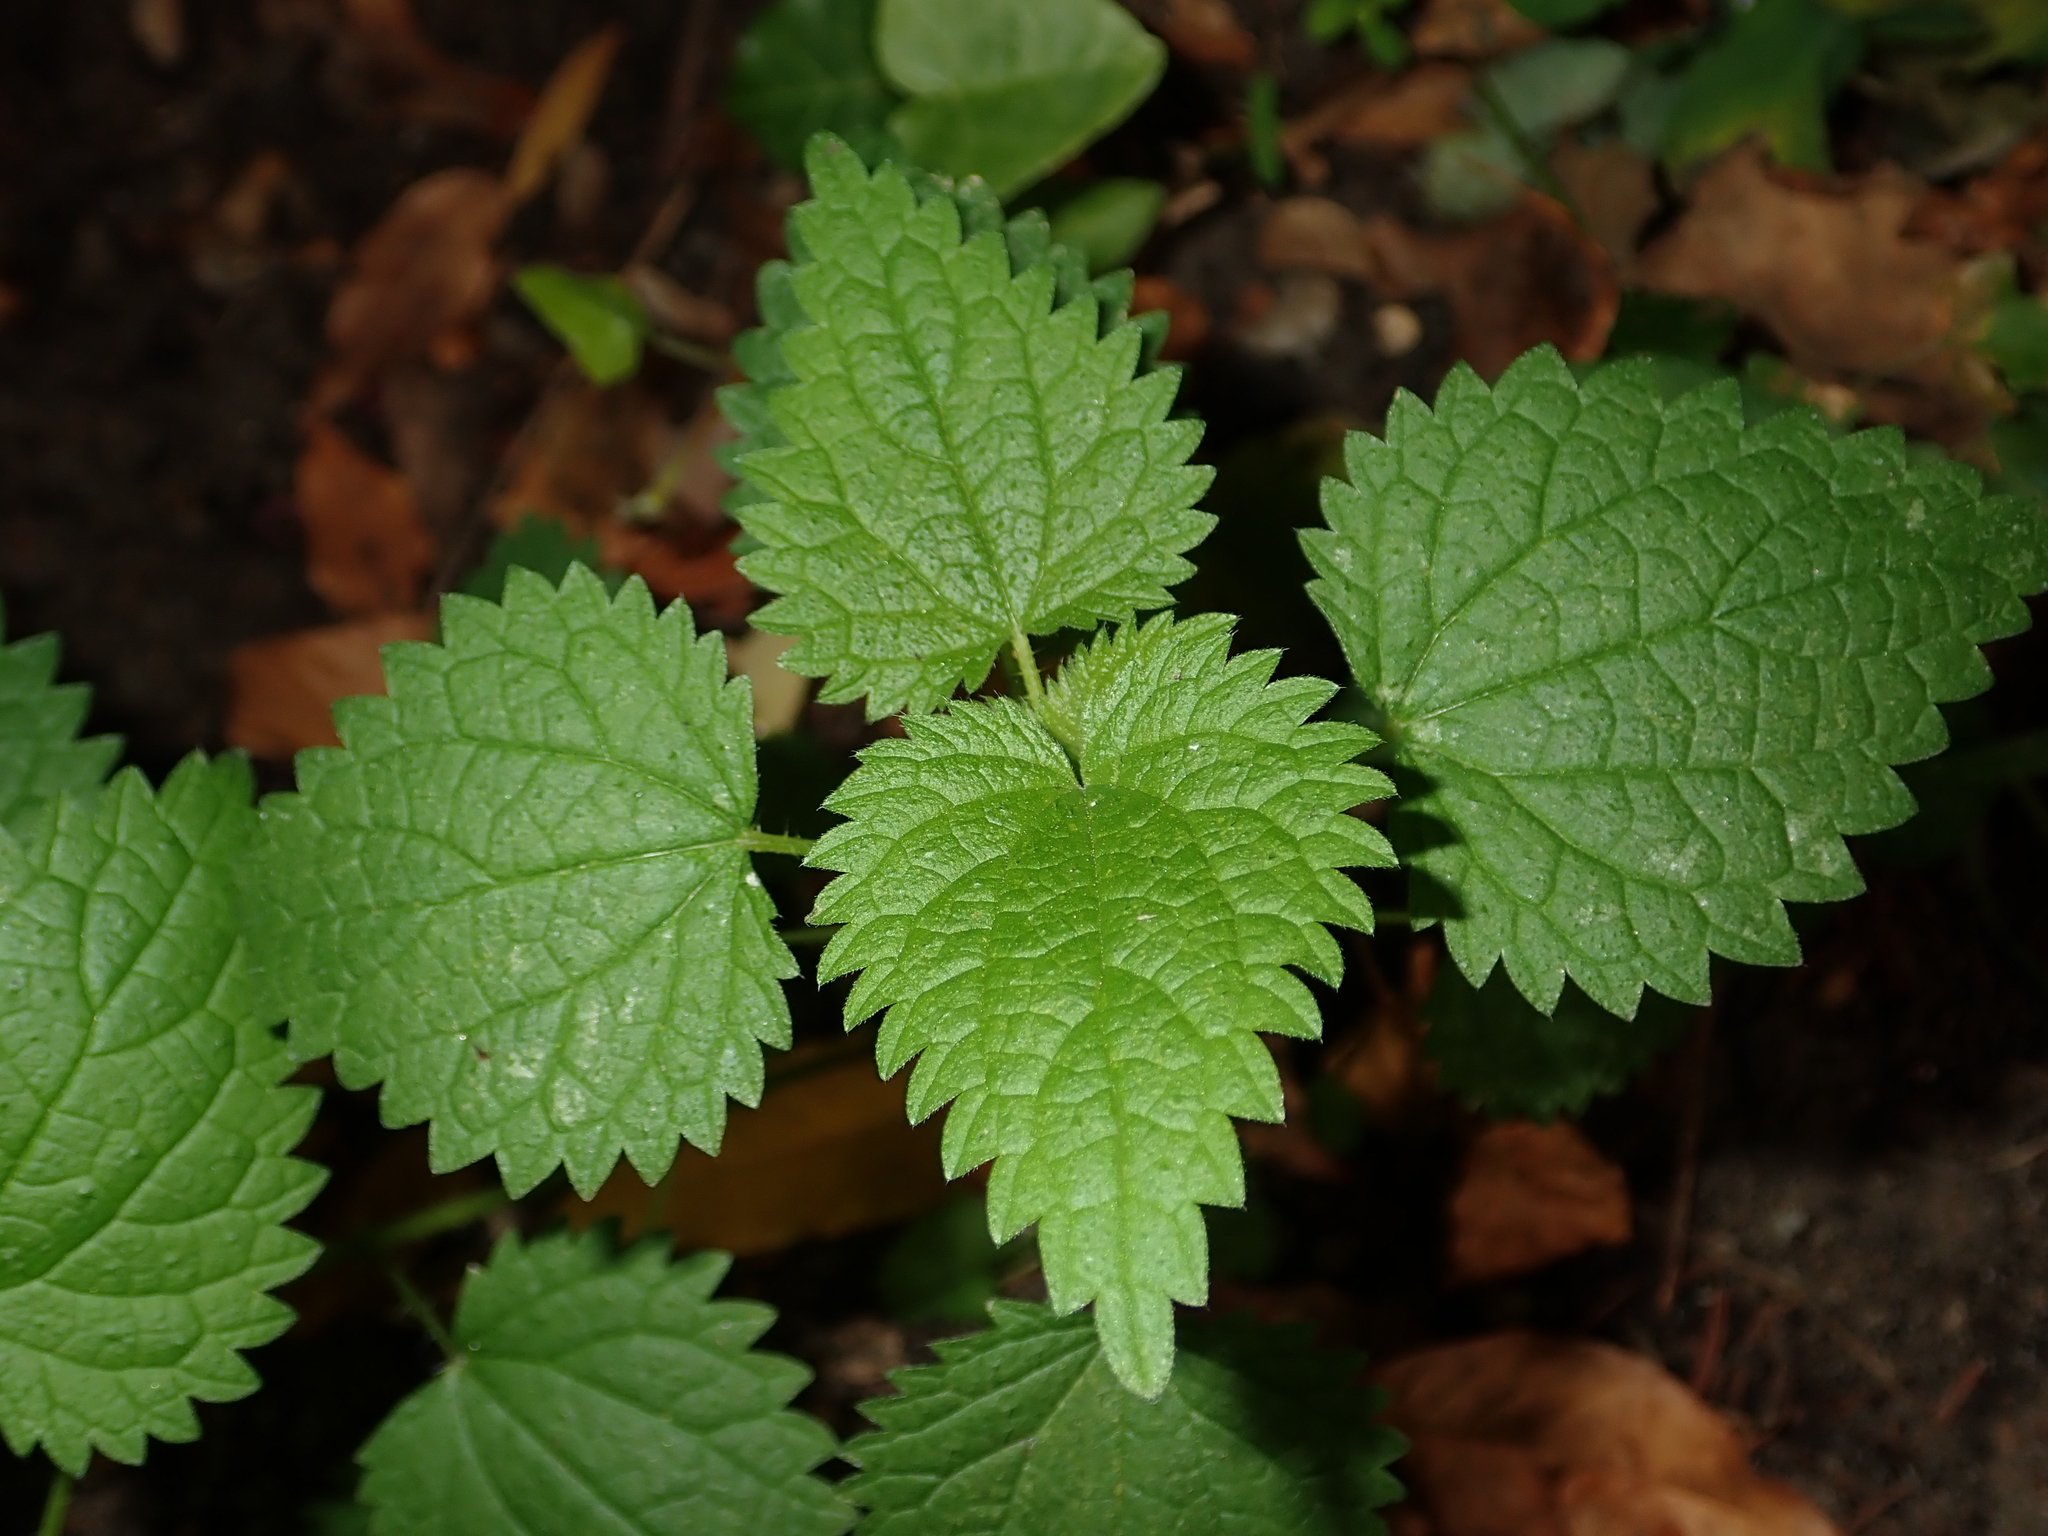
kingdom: Plantae
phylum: Tracheophyta
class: Magnoliopsida
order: Rosales
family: Urticaceae
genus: Urtica
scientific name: Urtica dioica
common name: Common nettle
